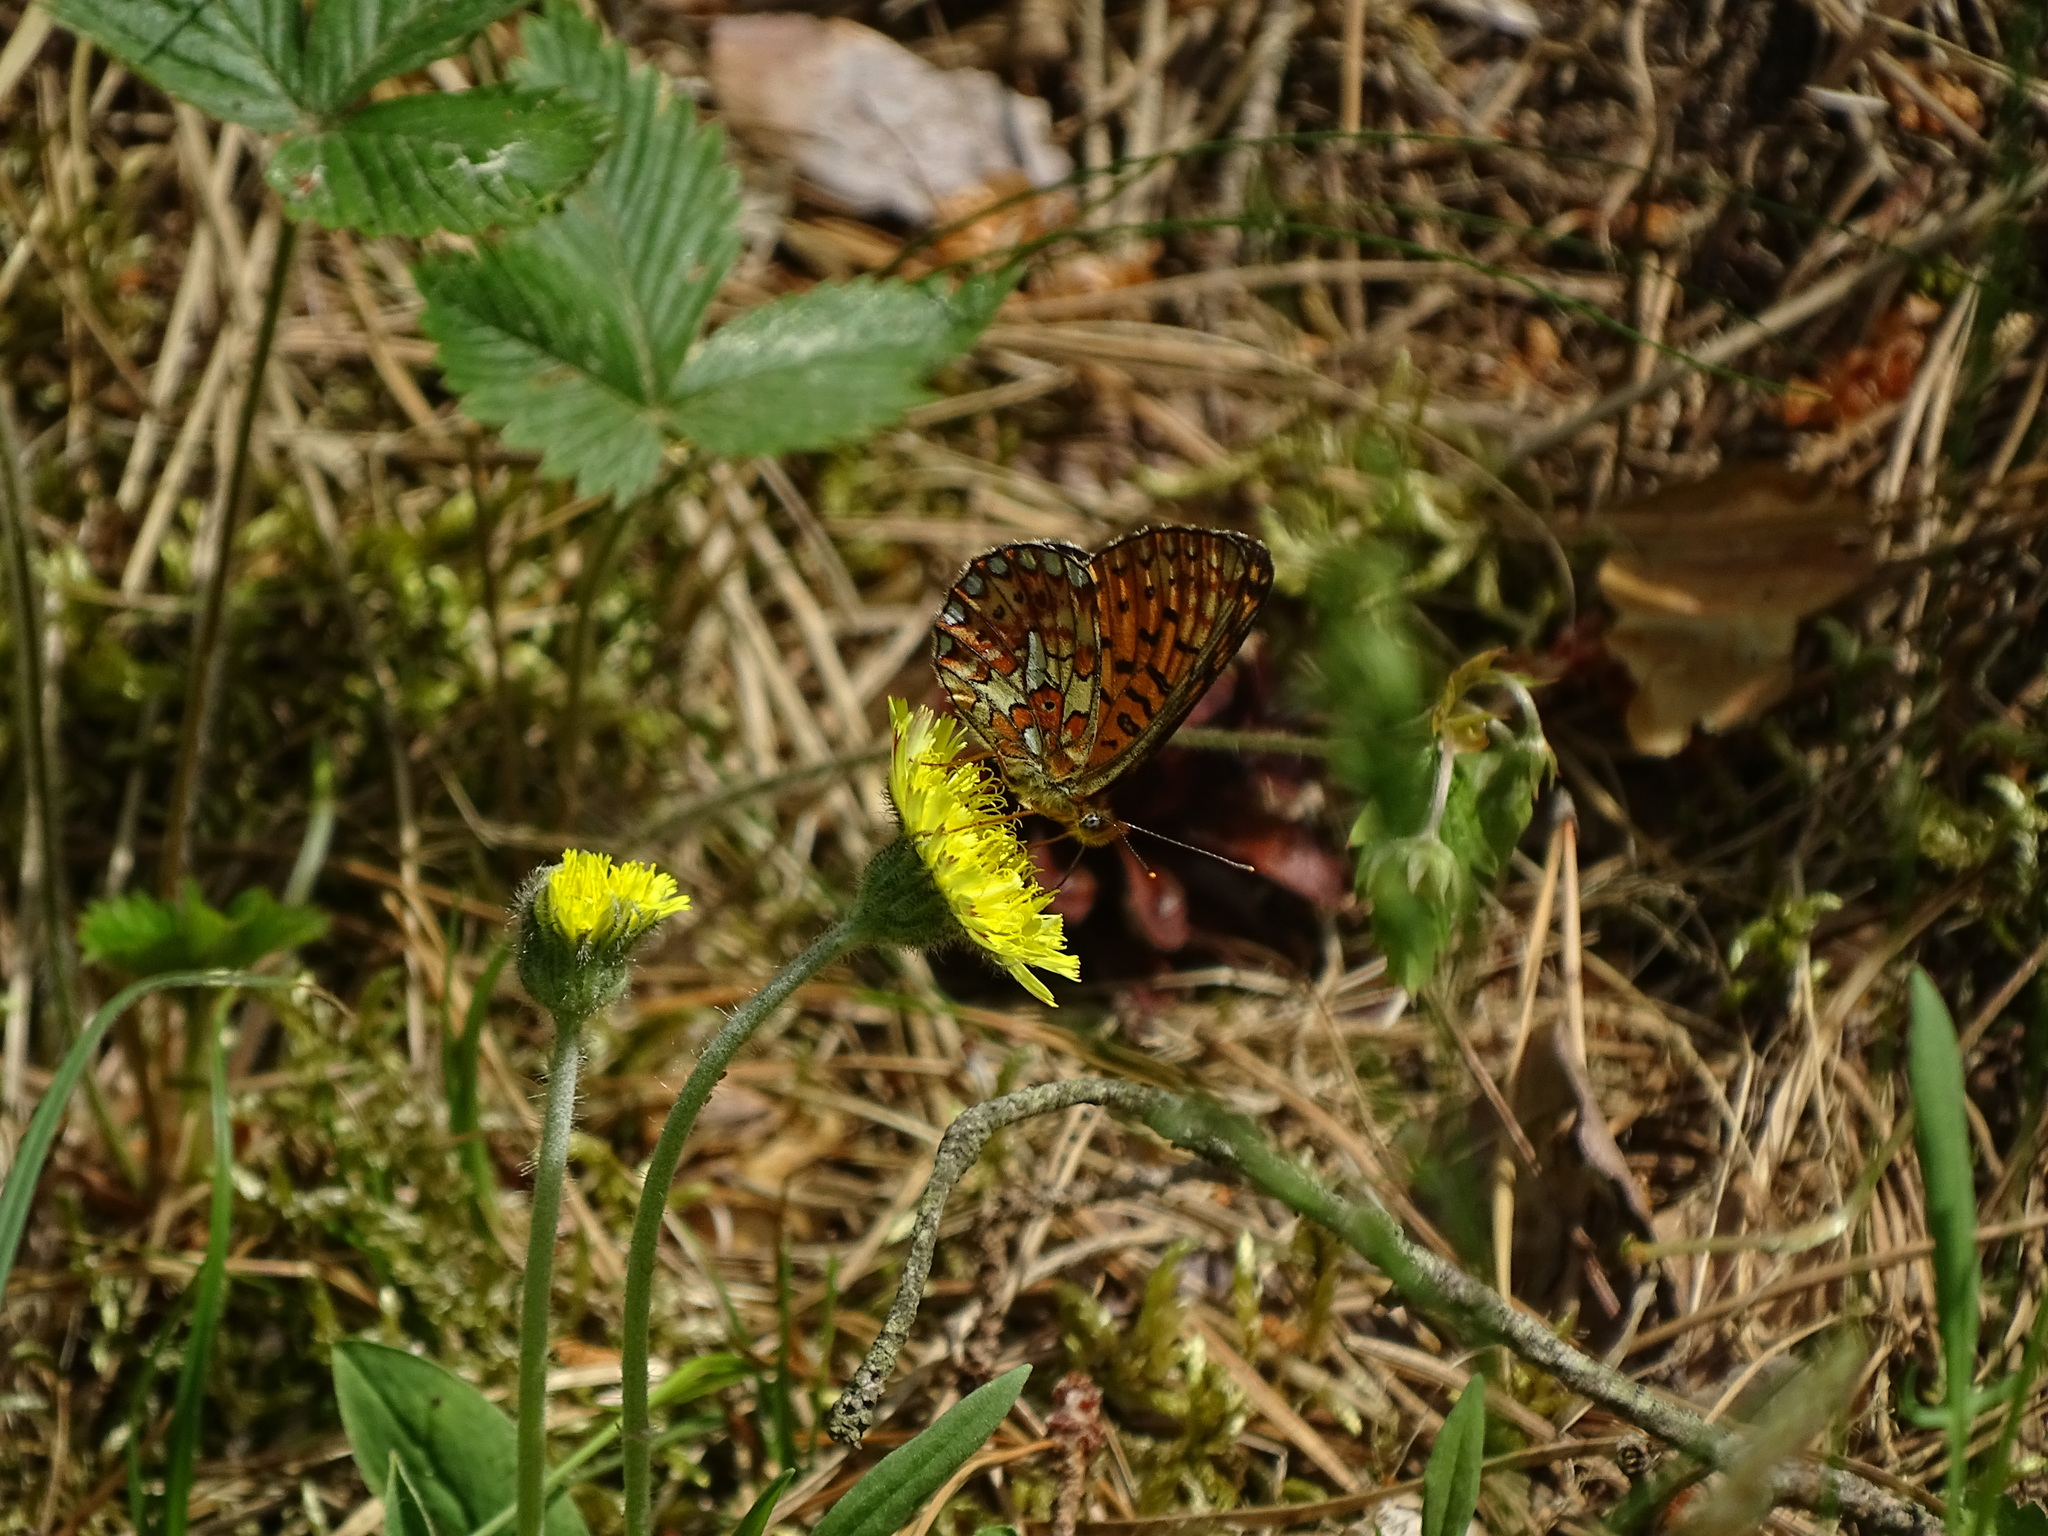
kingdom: Animalia
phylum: Arthropoda
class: Insecta
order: Lepidoptera
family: Nymphalidae
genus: Clossiana
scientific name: Clossiana euphrosyne
